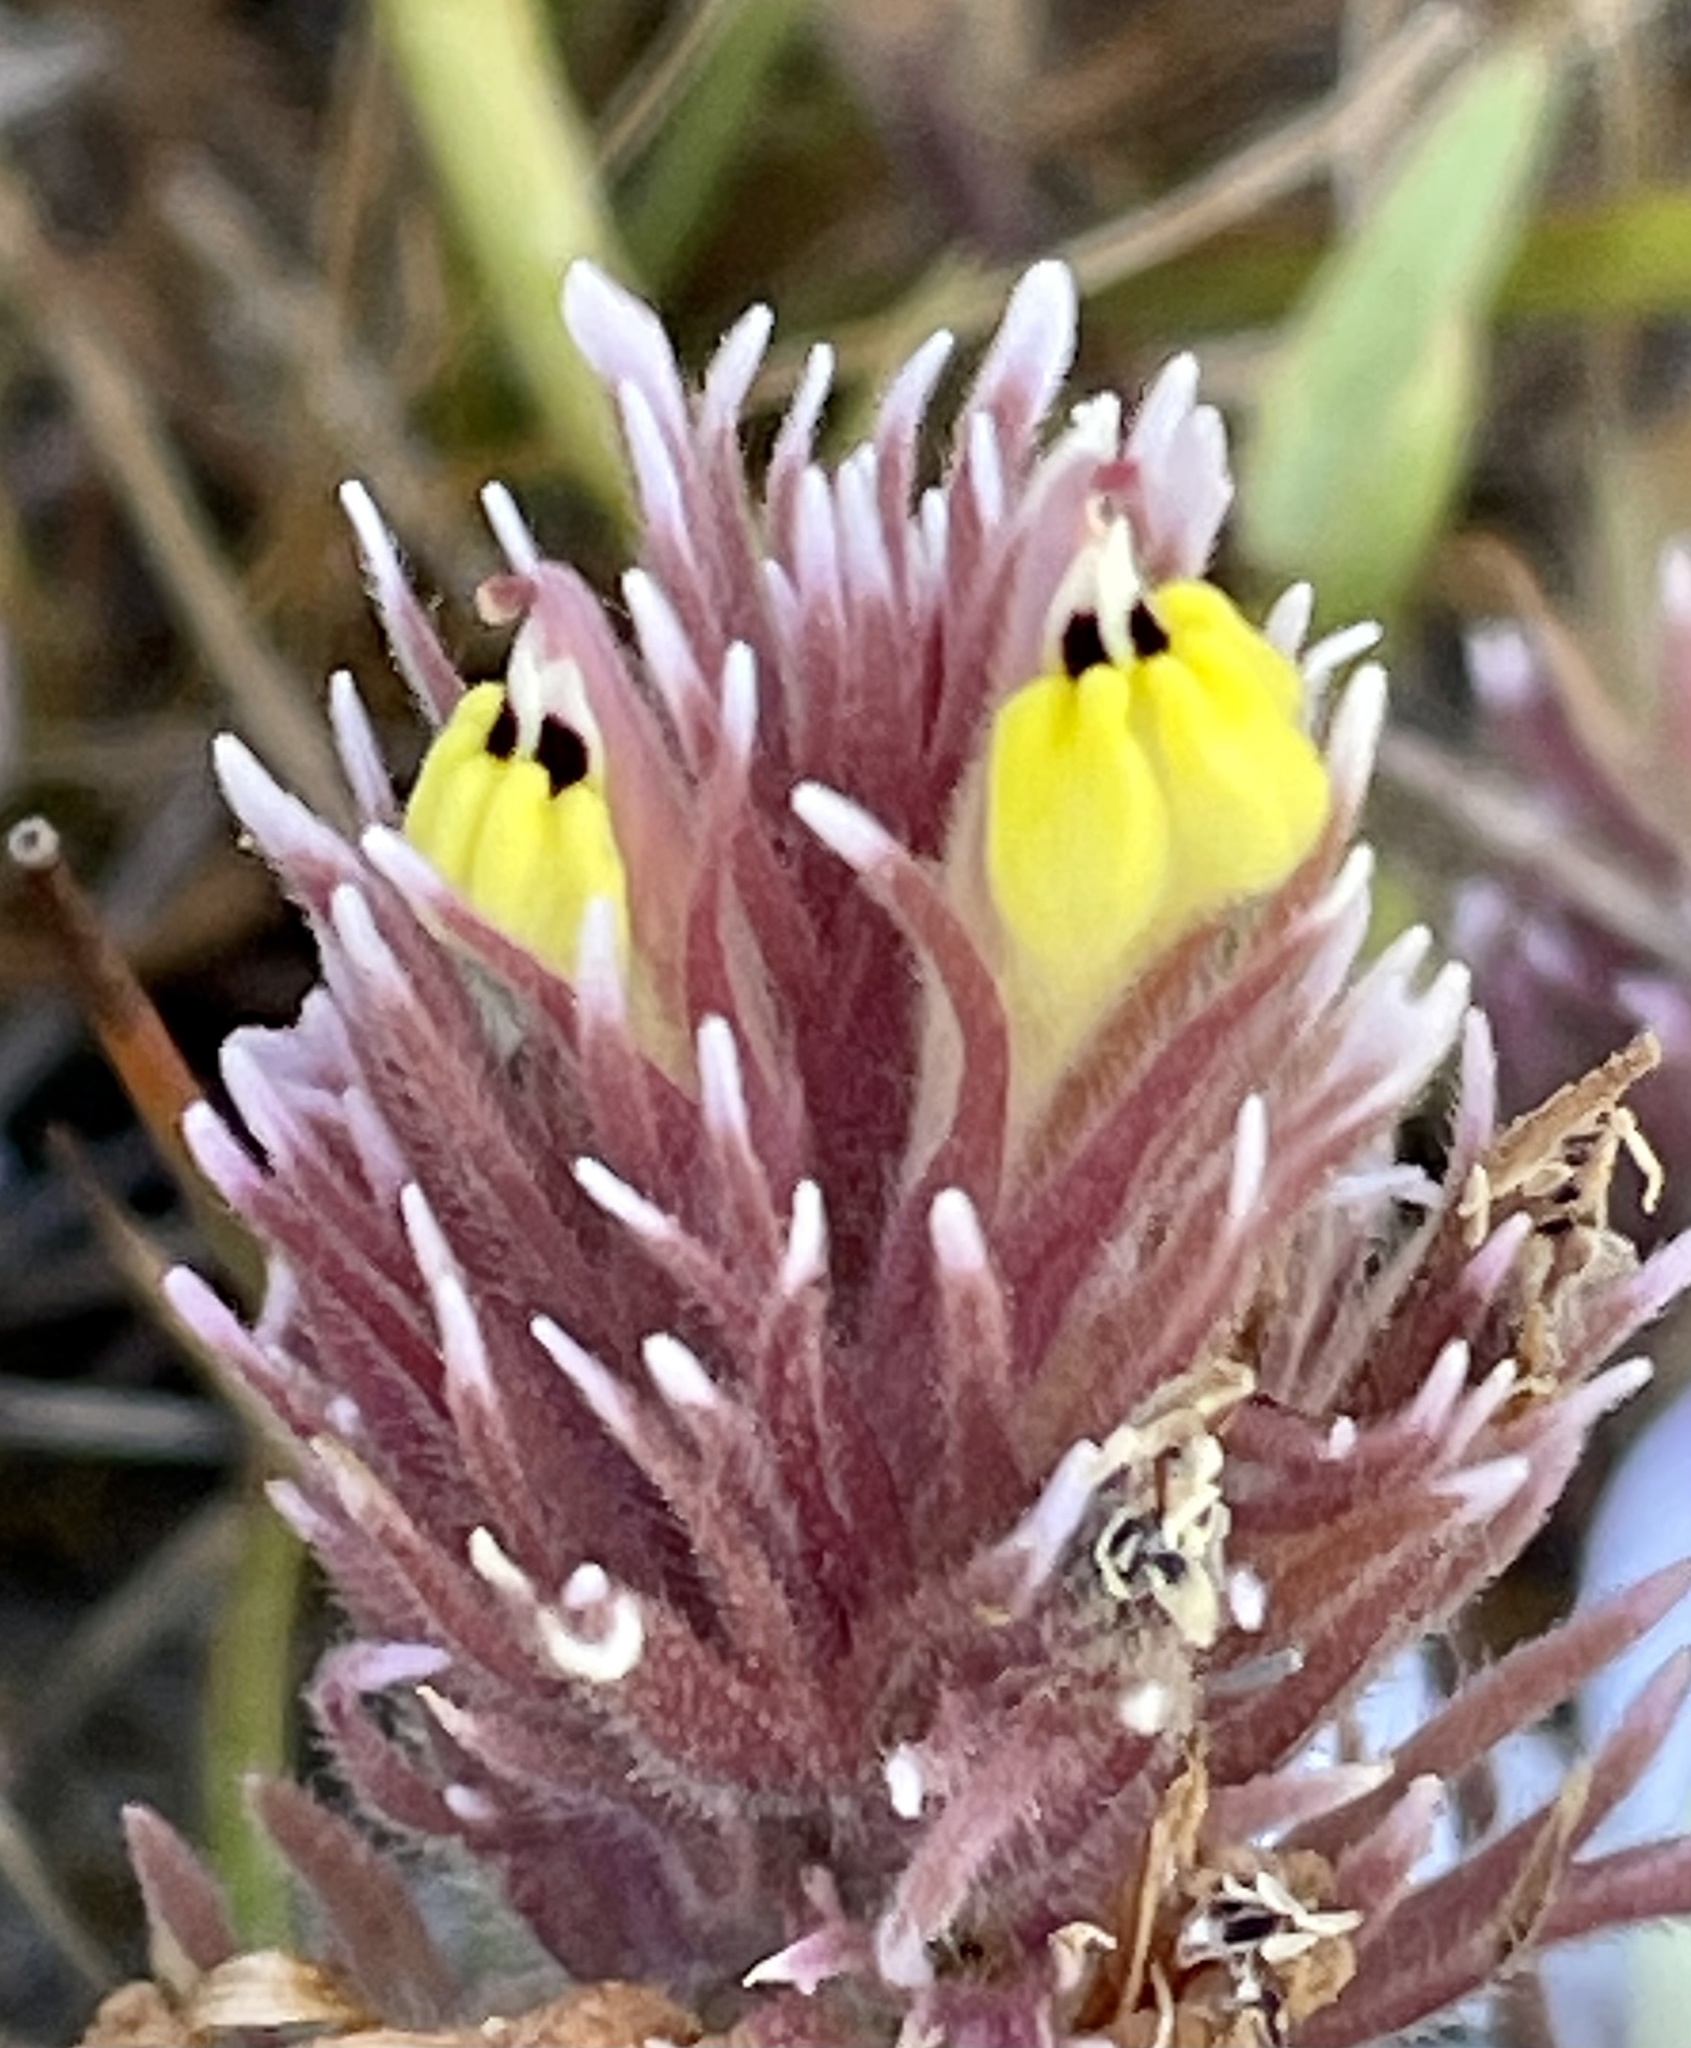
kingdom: Plantae
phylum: Tracheophyta
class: Magnoliopsida
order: Lamiales
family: Orobanchaceae
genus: Castilleja
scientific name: Castilleja ambigua
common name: Johnny-nip
